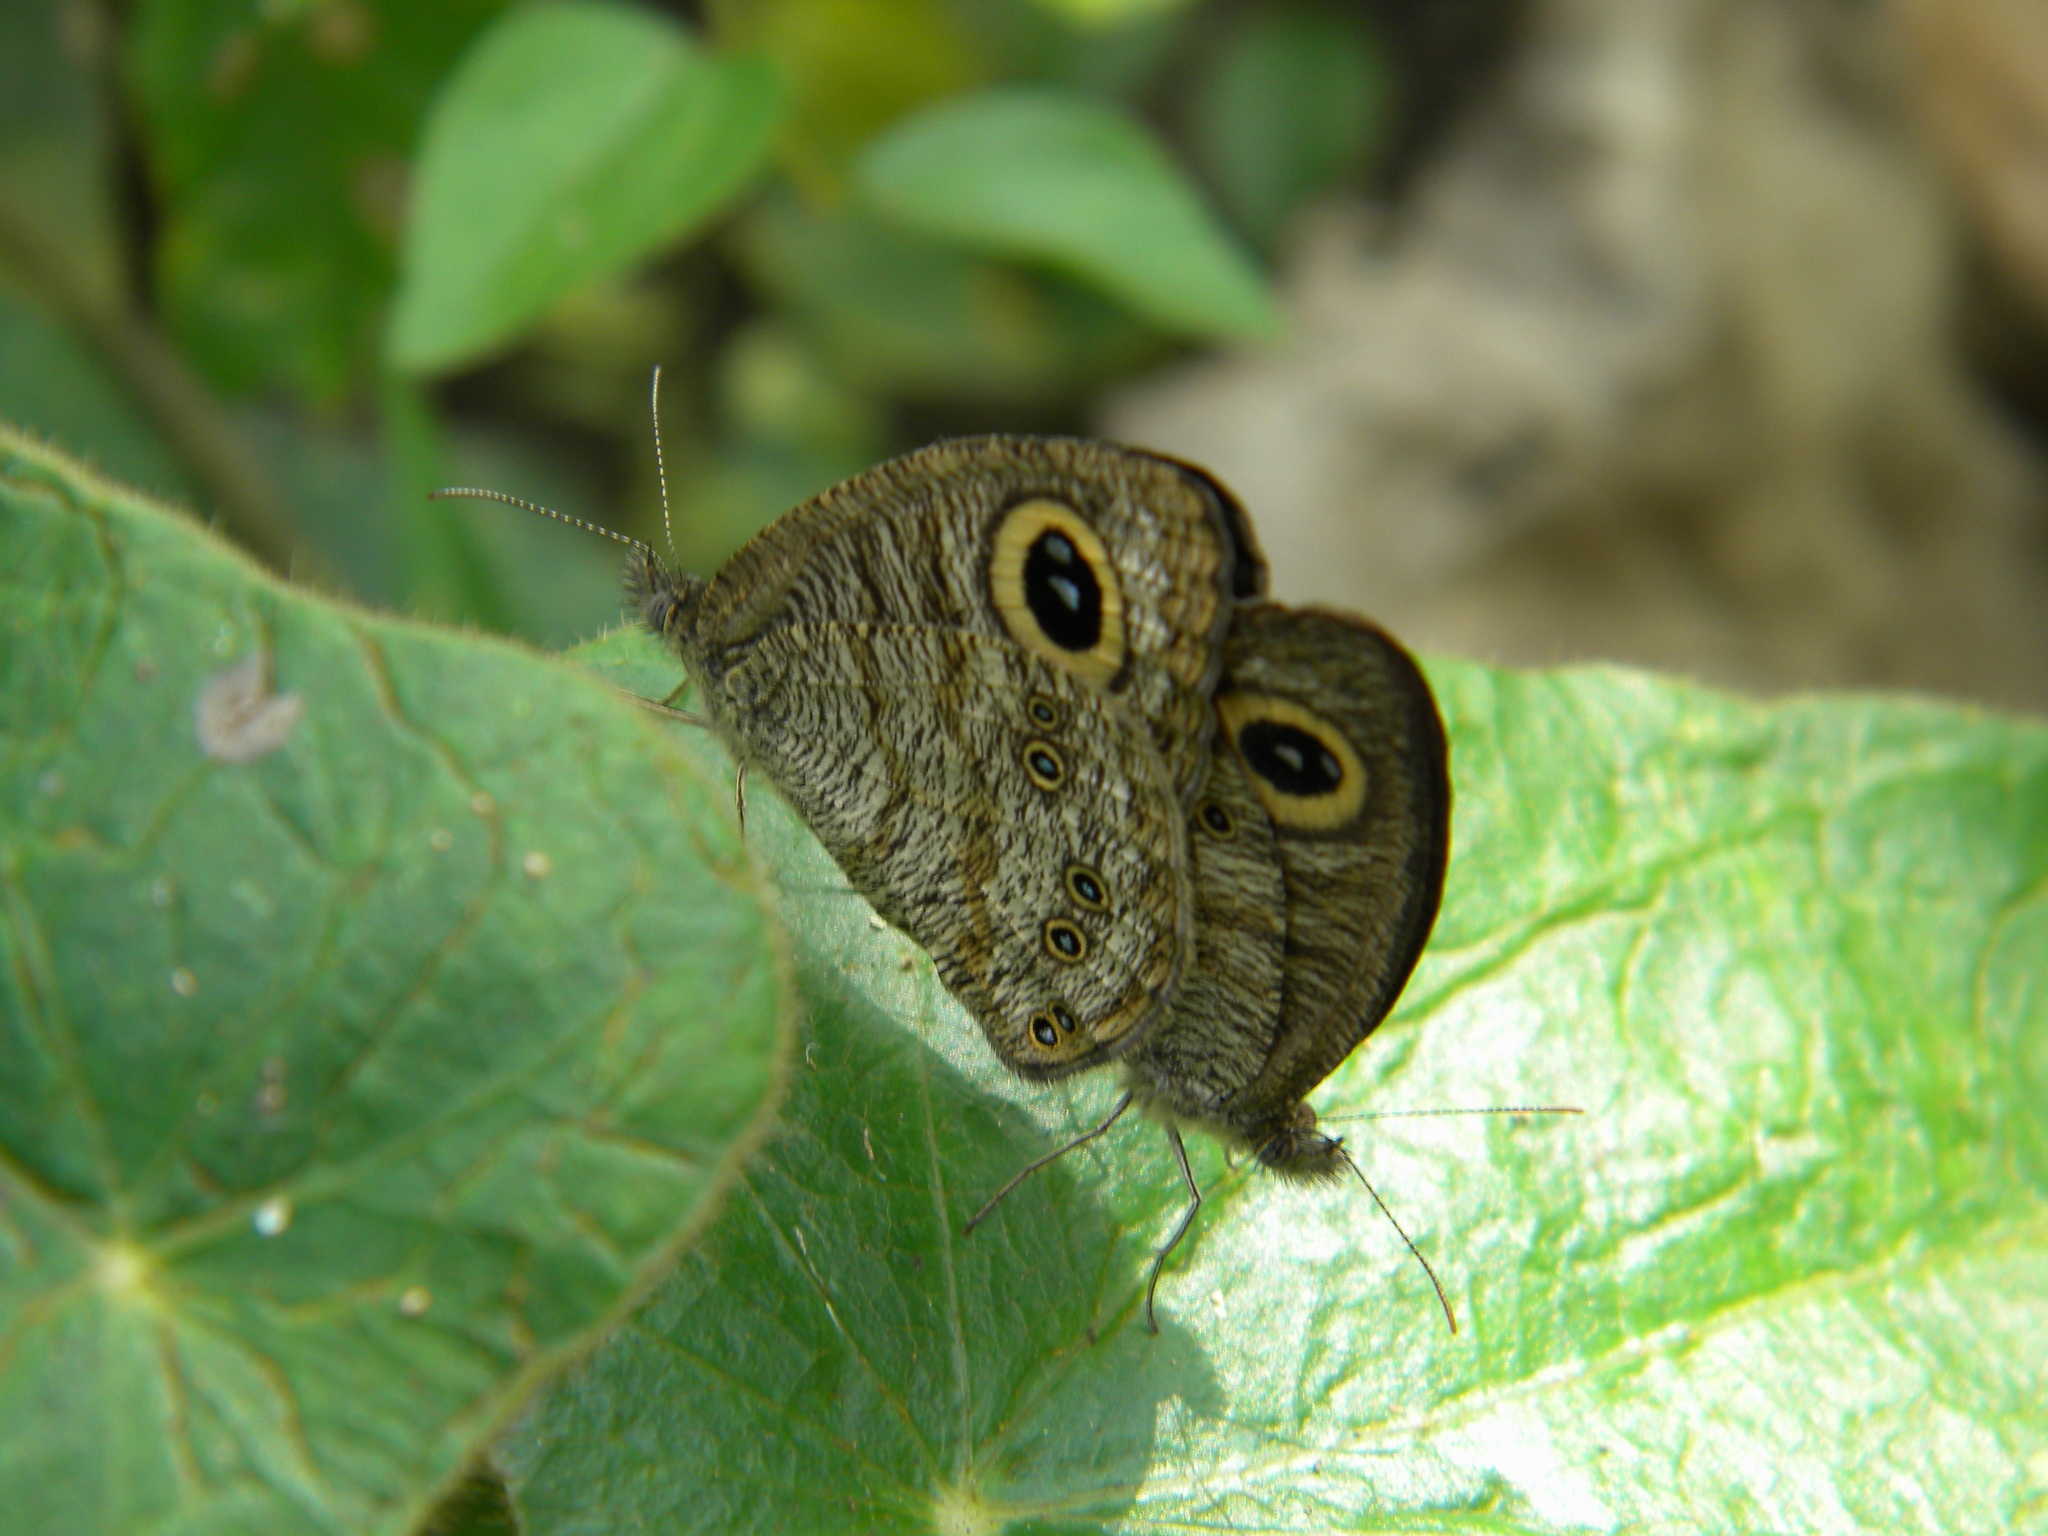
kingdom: Animalia
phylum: Arthropoda
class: Insecta
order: Lepidoptera
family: Nymphalidae
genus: Ypthima
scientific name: Ypthima baldus
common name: Common five-ring
